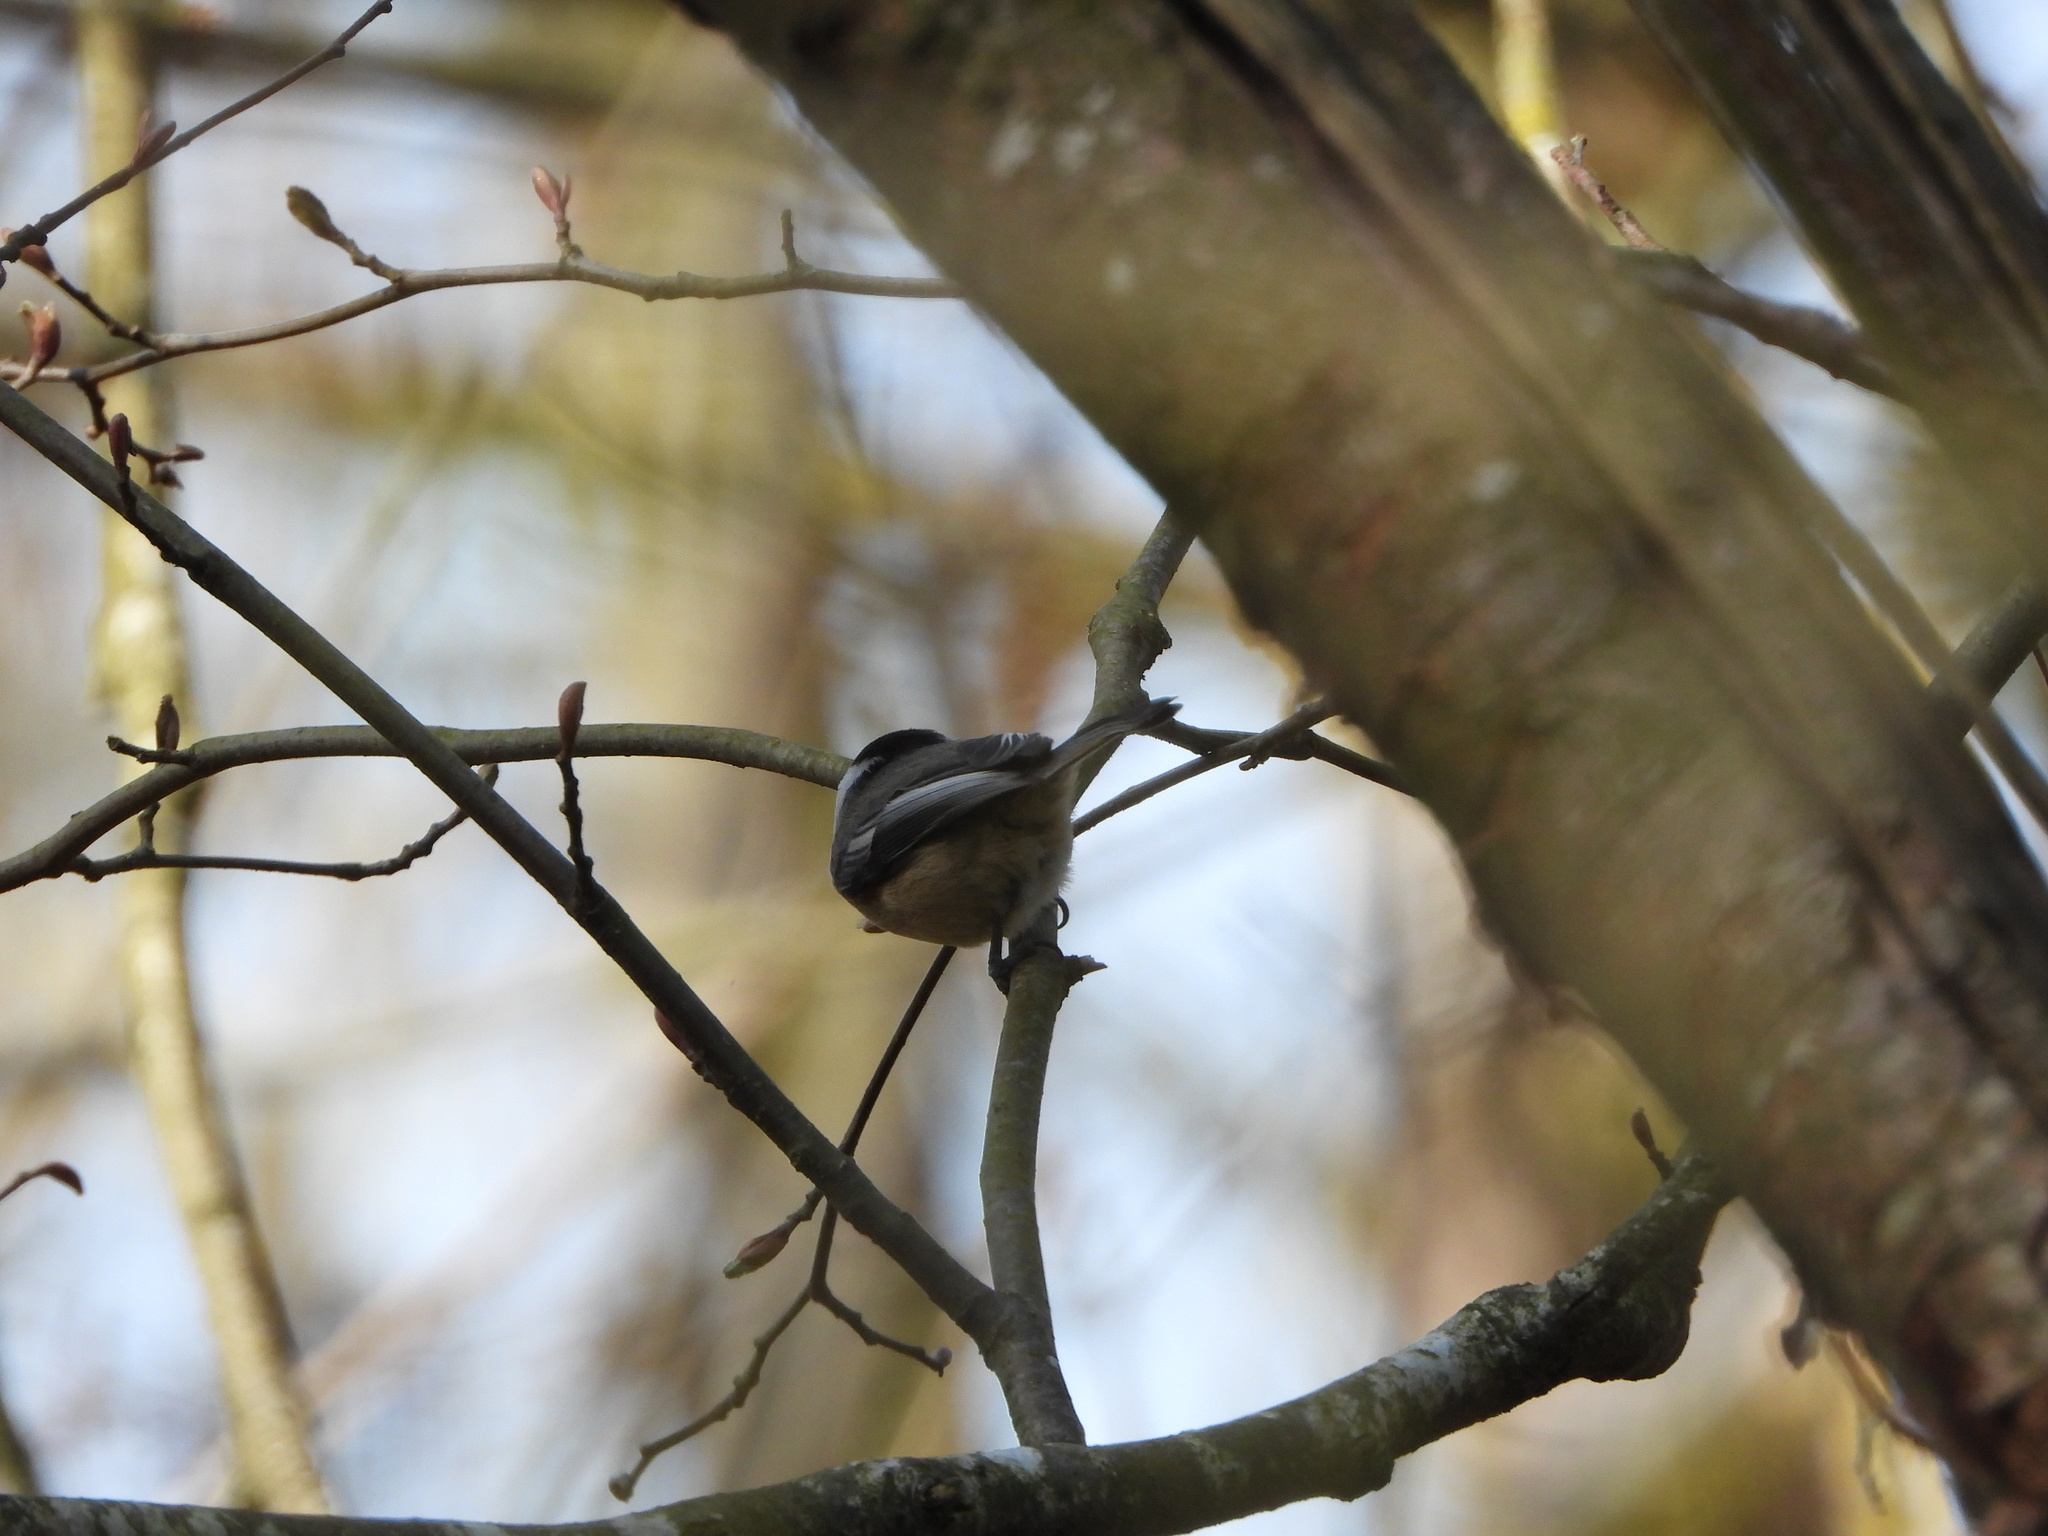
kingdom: Animalia
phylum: Chordata
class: Aves
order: Passeriformes
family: Paridae
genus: Poecile
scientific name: Poecile atricapillus
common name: Black-capped chickadee
